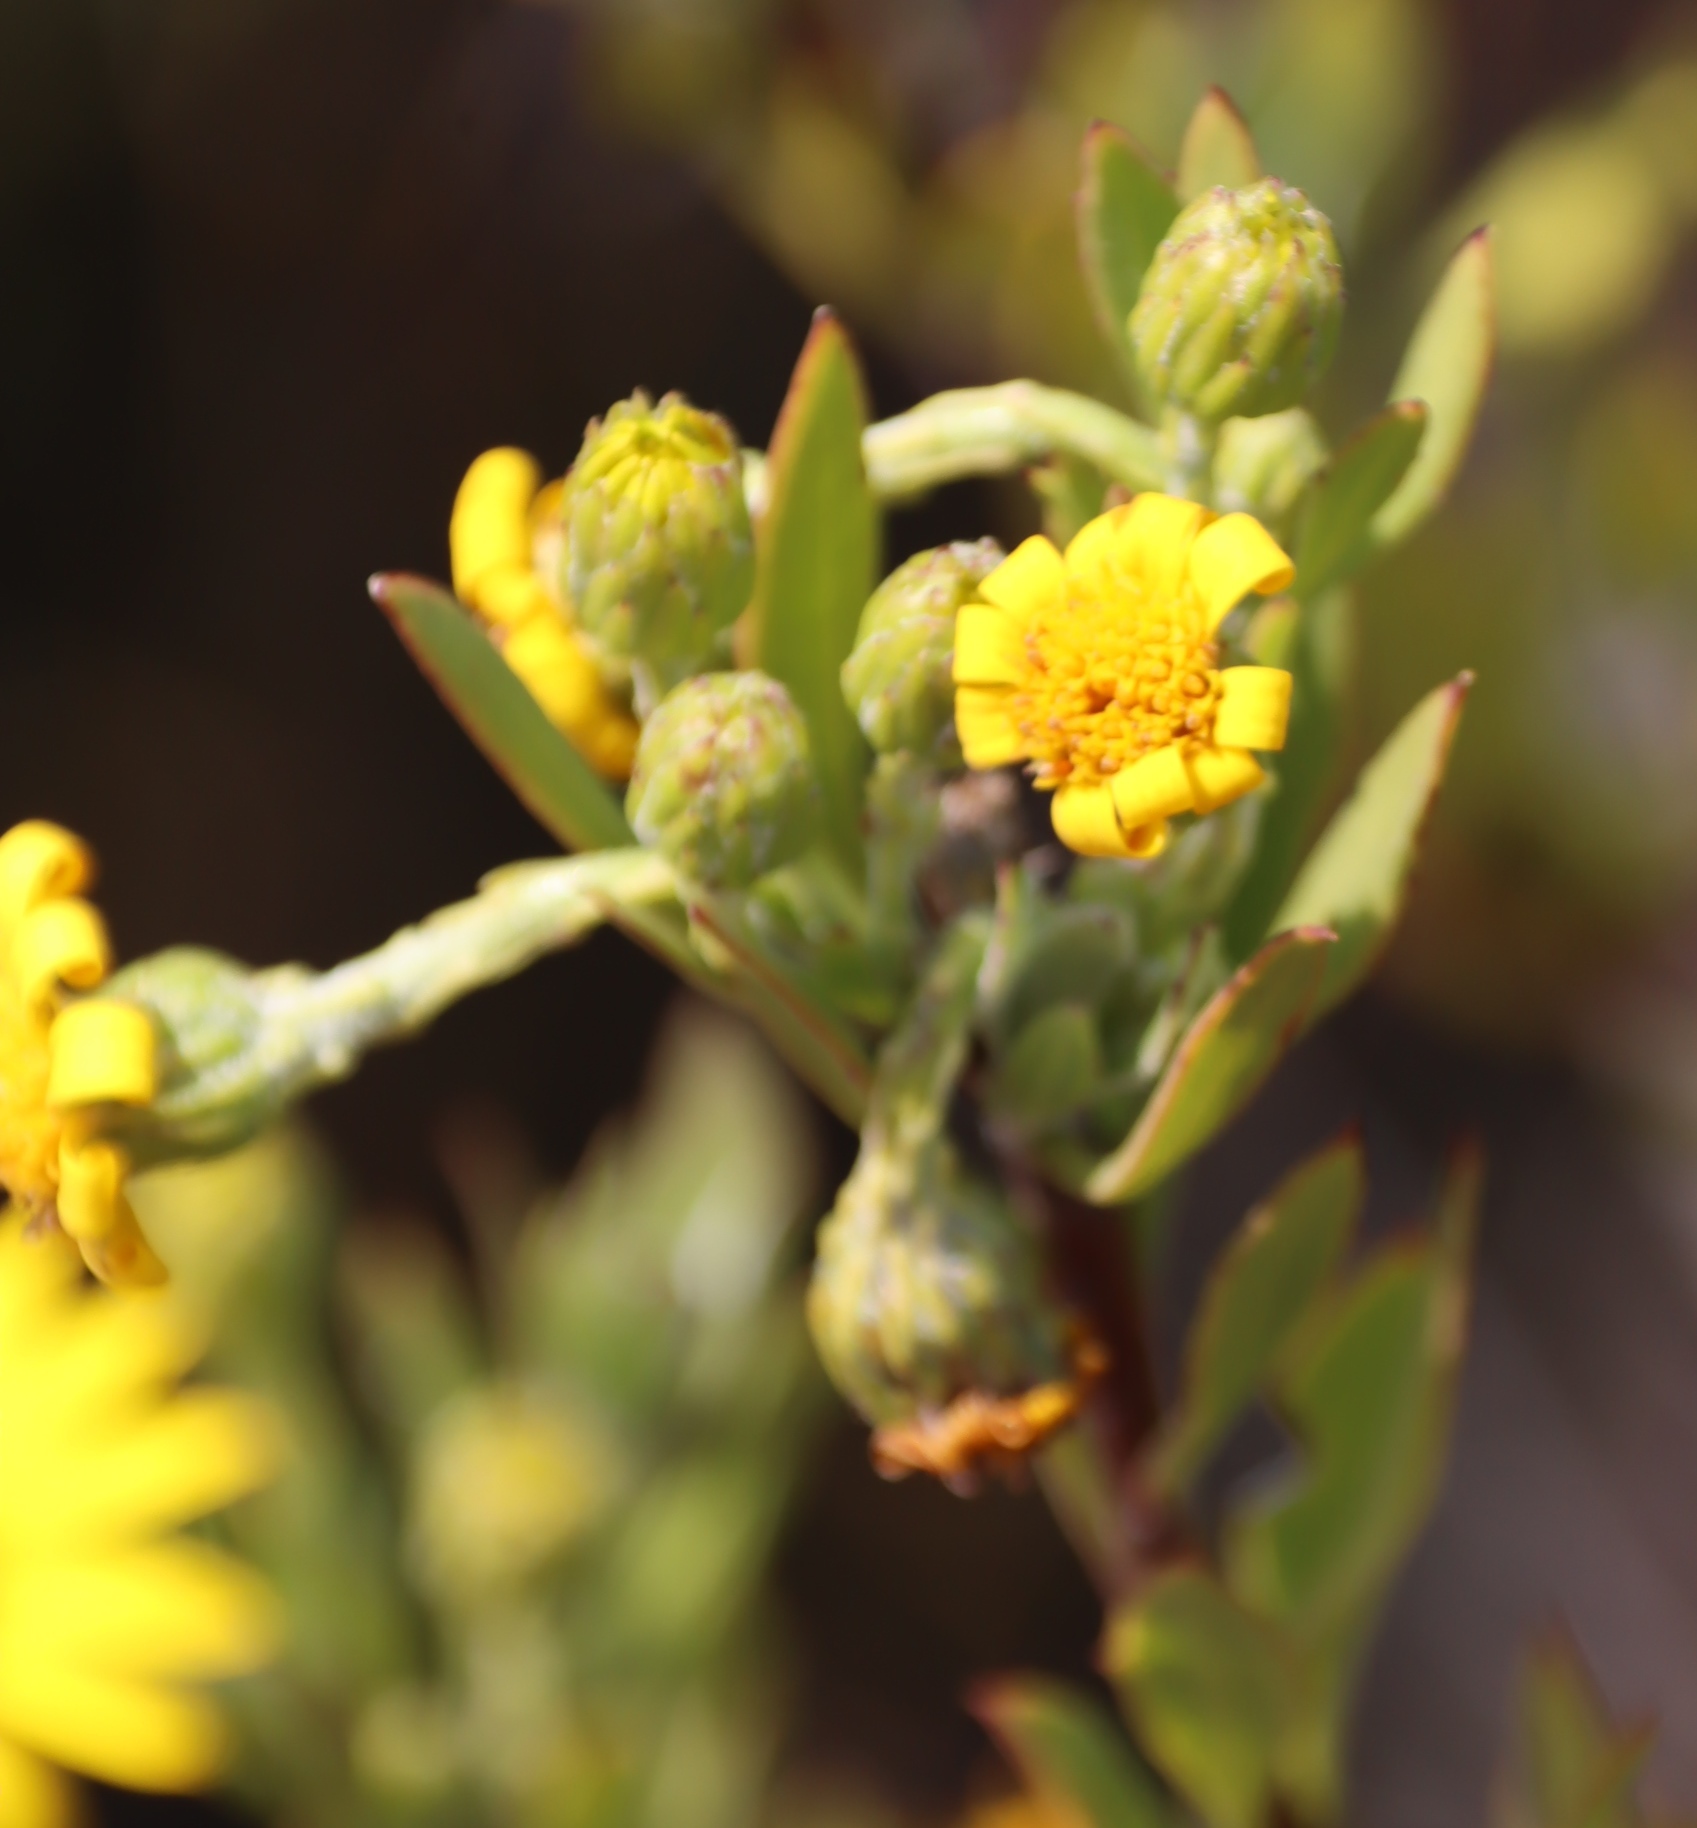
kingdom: Plantae
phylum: Tracheophyta
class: Magnoliopsida
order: Asterales
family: Asteraceae
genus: Osteospermum
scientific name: Osteospermum moniliferum
